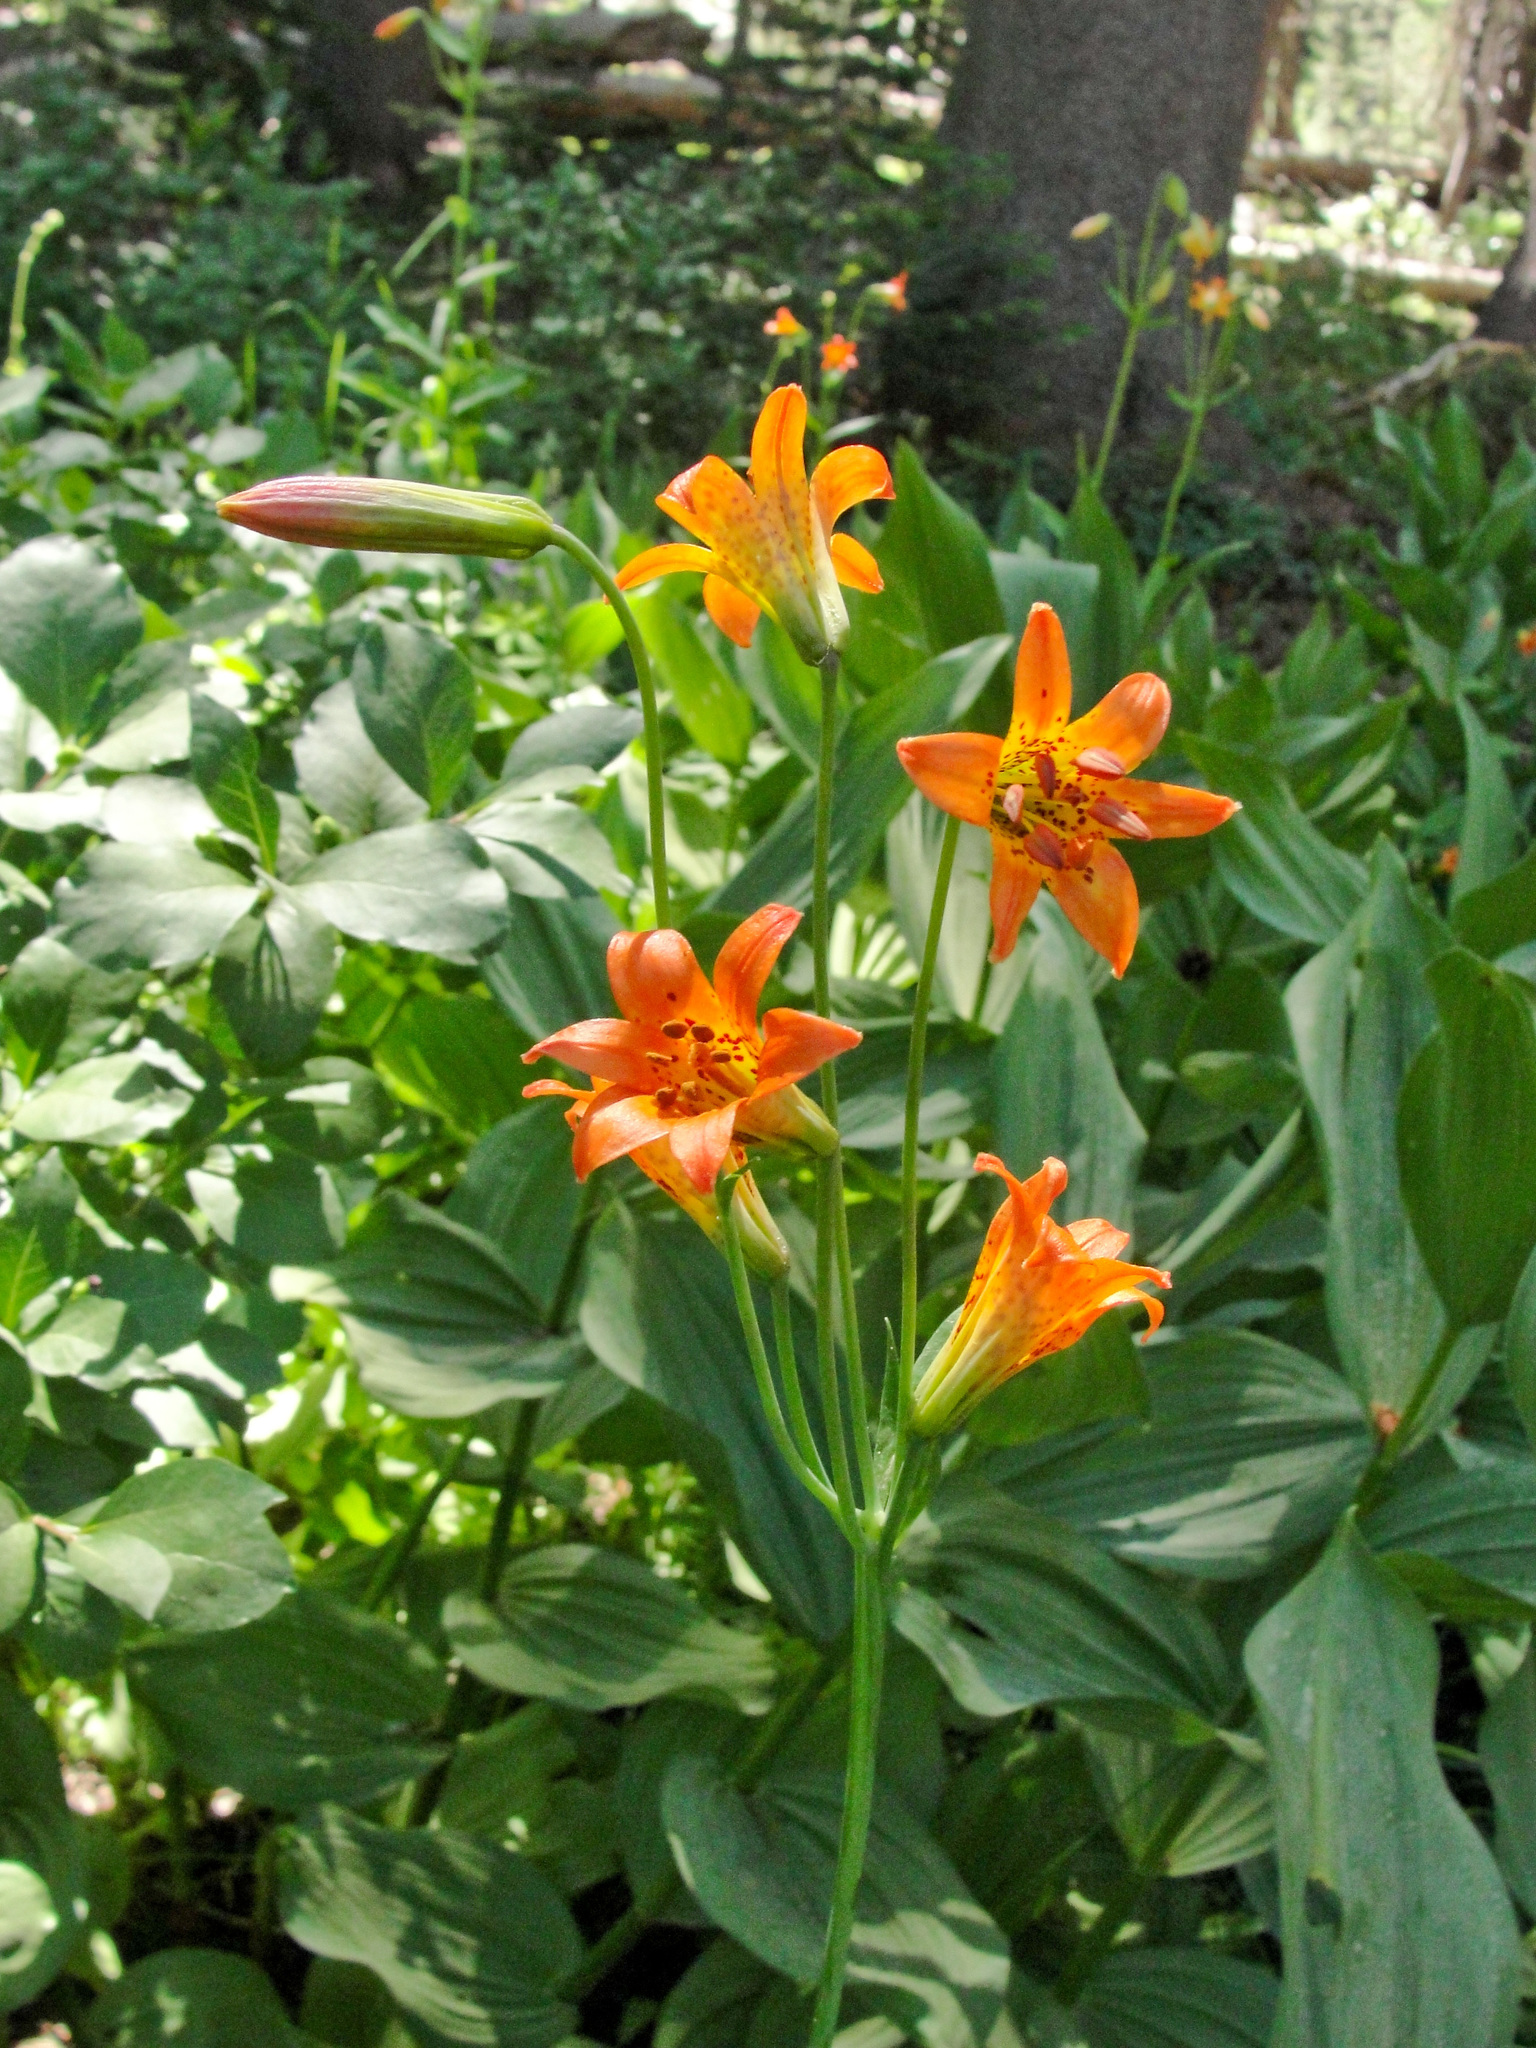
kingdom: Plantae
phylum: Tracheophyta
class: Liliopsida
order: Liliales
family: Liliaceae
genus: Lilium
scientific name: Lilium parvum
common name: Alpine lily
